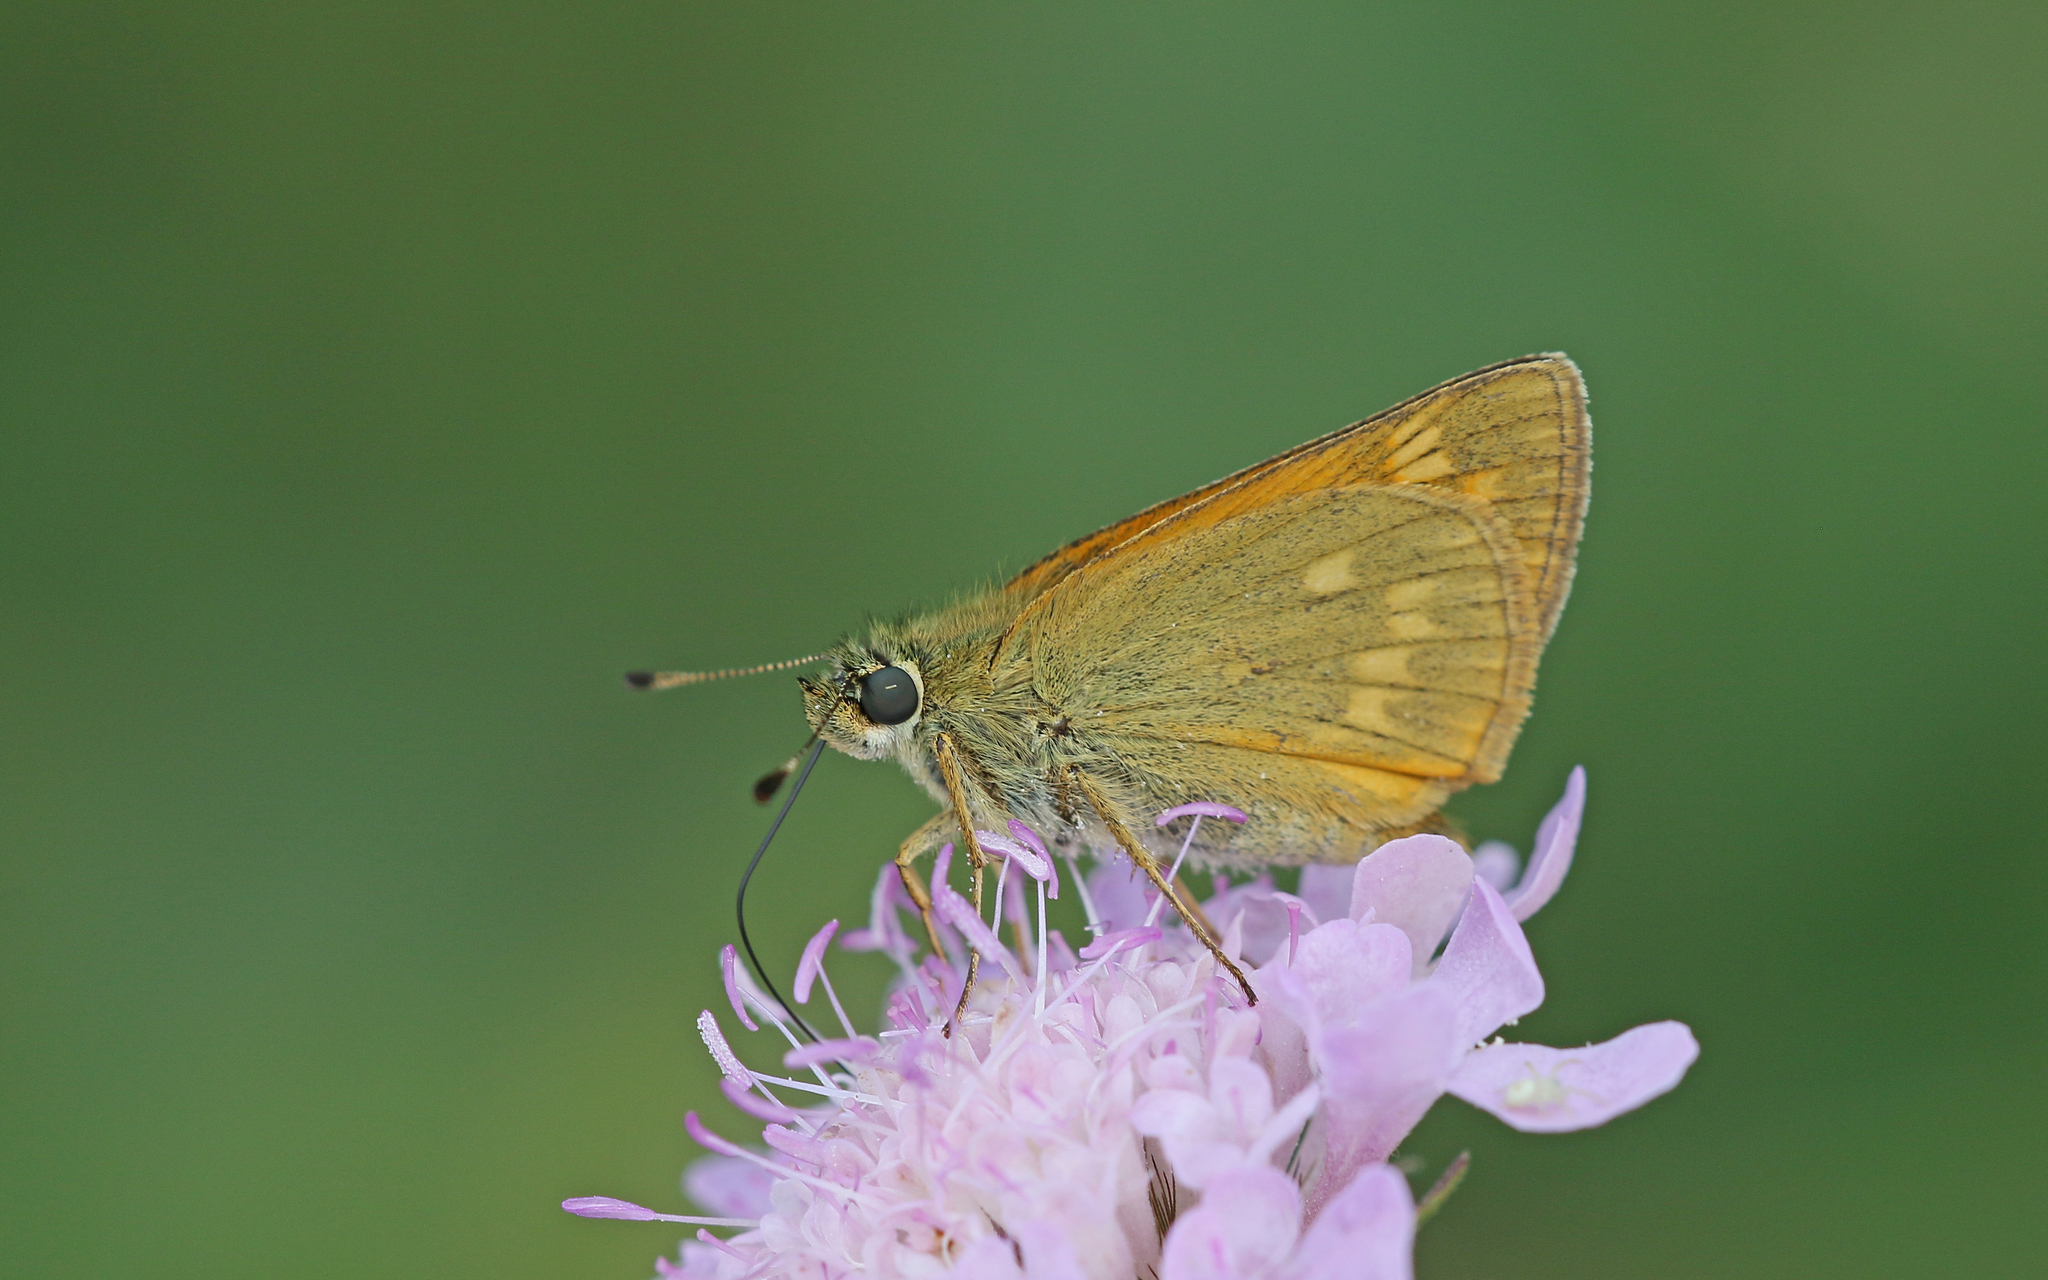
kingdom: Animalia
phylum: Arthropoda
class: Insecta
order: Lepidoptera
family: Hesperiidae
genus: Ochlodes
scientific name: Ochlodes venata
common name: Large skipper
